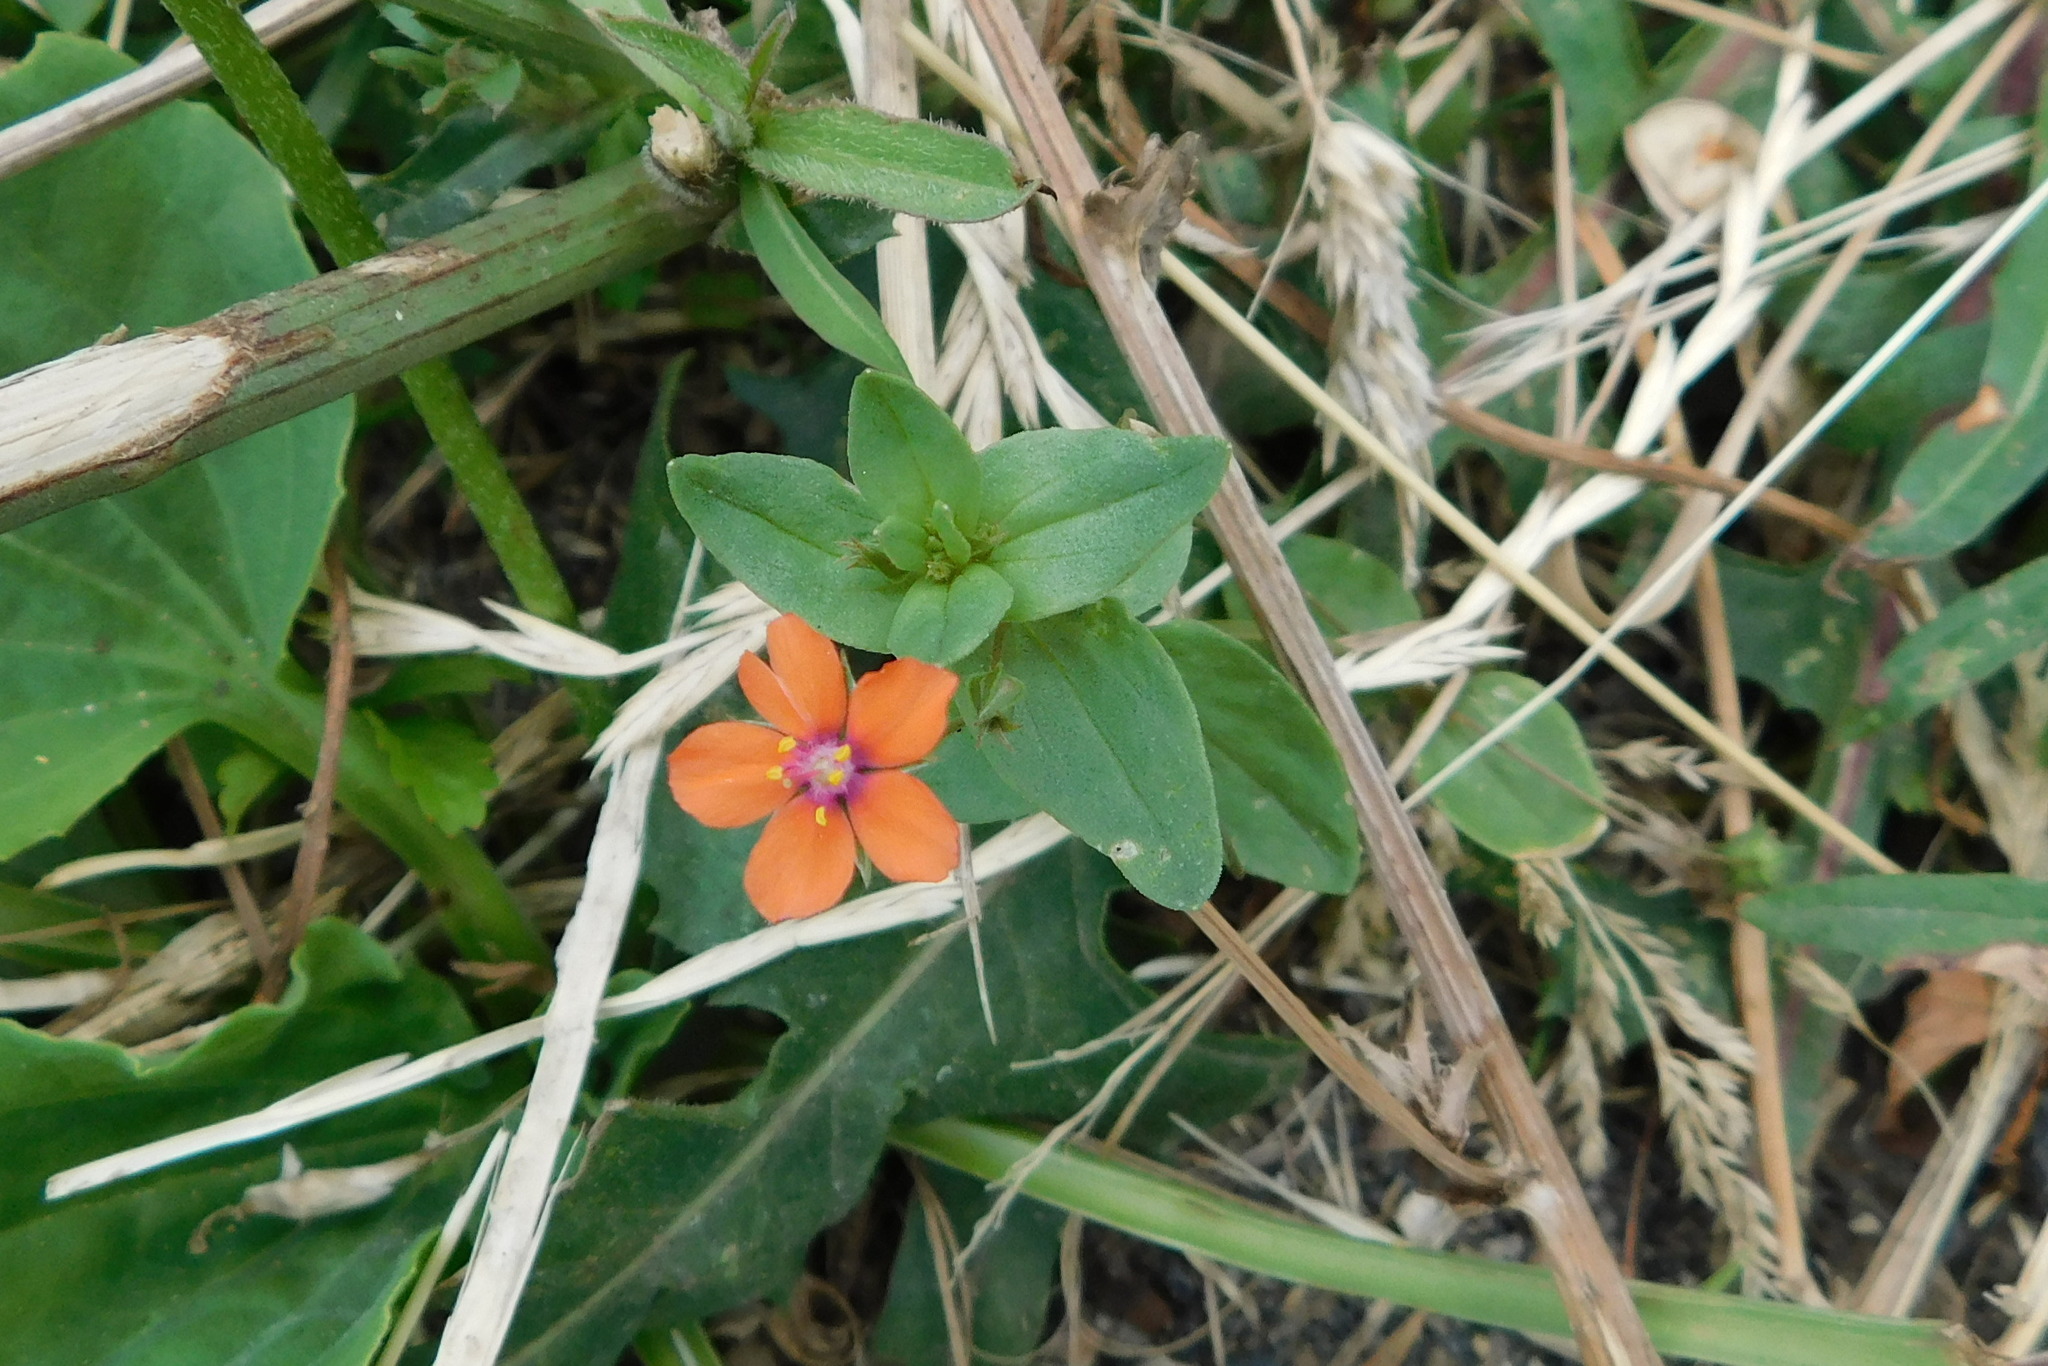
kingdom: Plantae
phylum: Tracheophyta
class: Magnoliopsida
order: Ericales
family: Primulaceae
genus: Lysimachia
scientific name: Lysimachia arvensis
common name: Scarlet pimpernel
